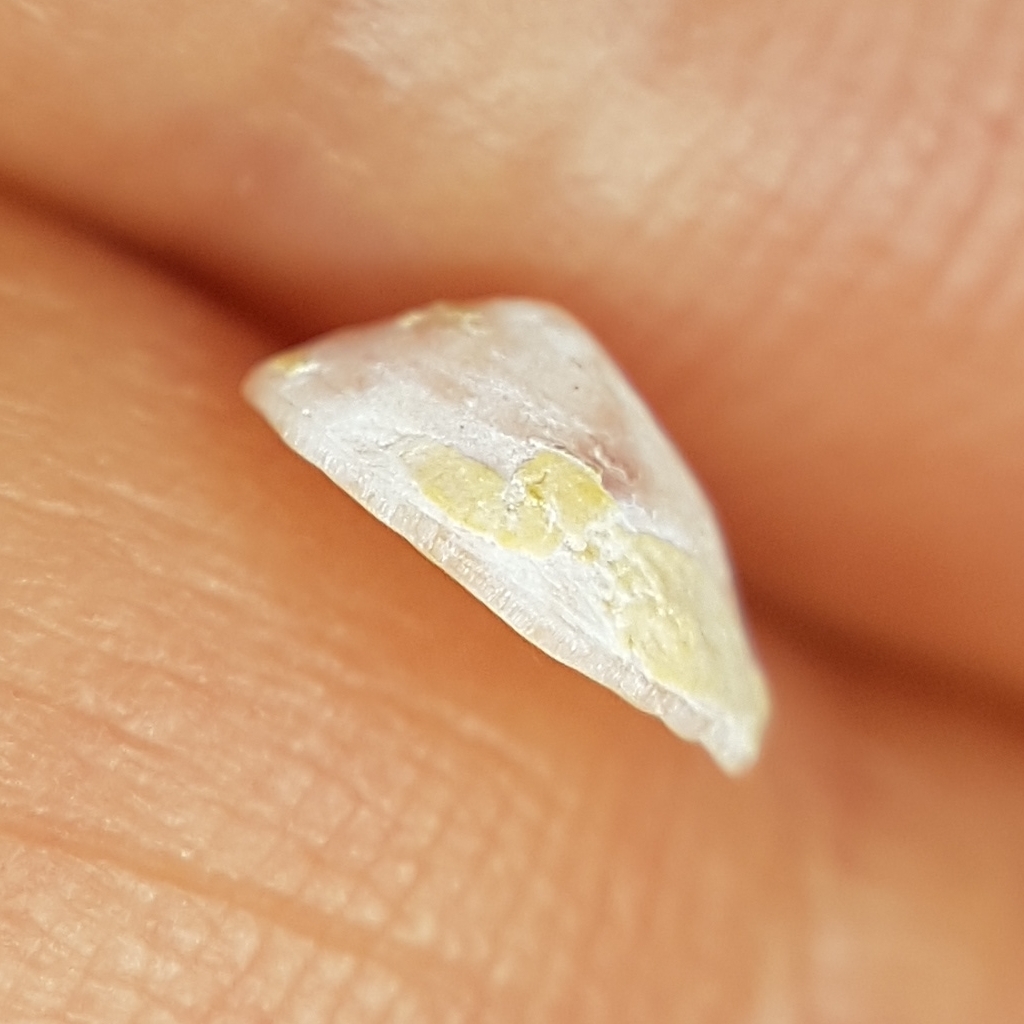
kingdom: Animalia
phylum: Mollusca
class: Gastropoda
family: Lottiidae
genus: Tectura
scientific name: Tectura virginea
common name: White tortoiseshell limpet
